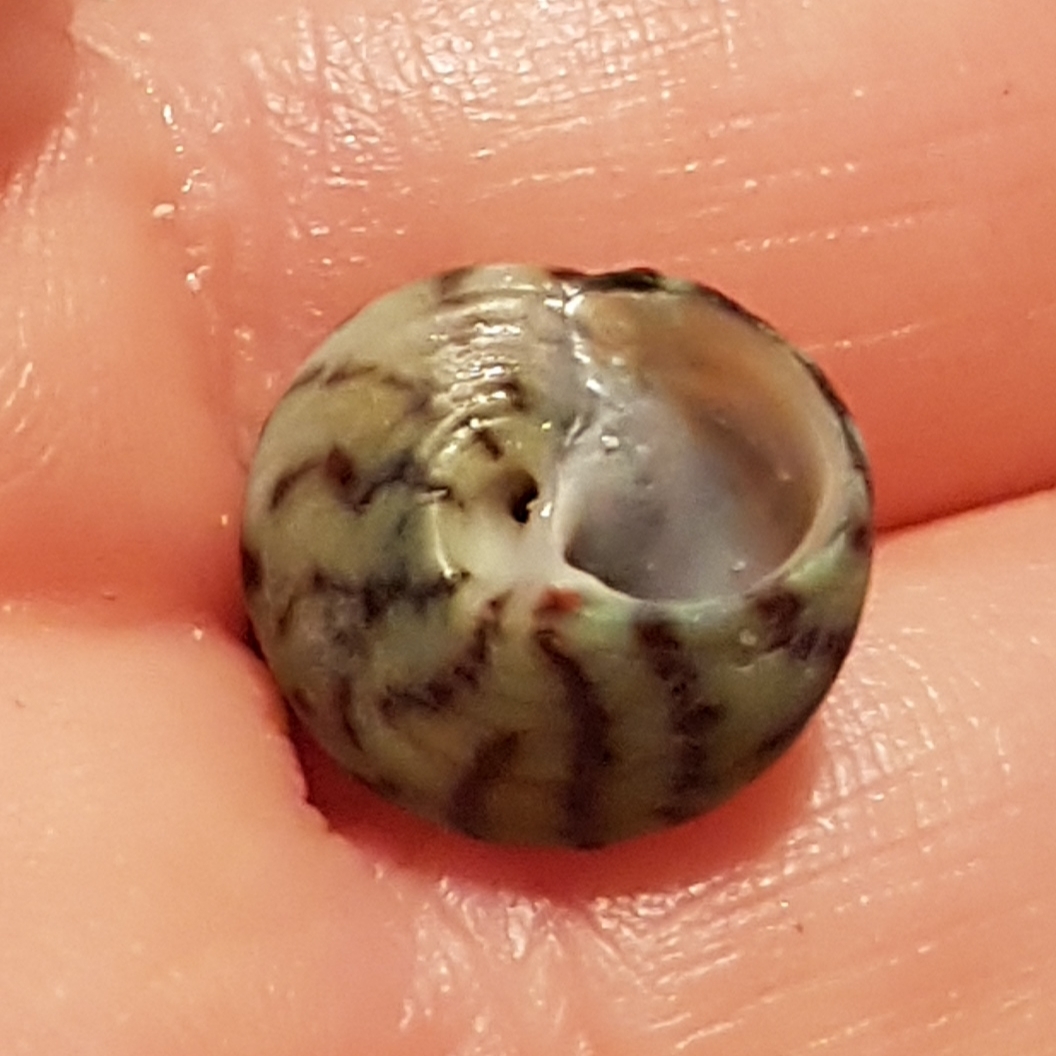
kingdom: Animalia
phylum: Mollusca
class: Gastropoda
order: Trochida
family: Trochidae
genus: Steromphala
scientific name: Steromphala umbilicalis
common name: Flat top shell
